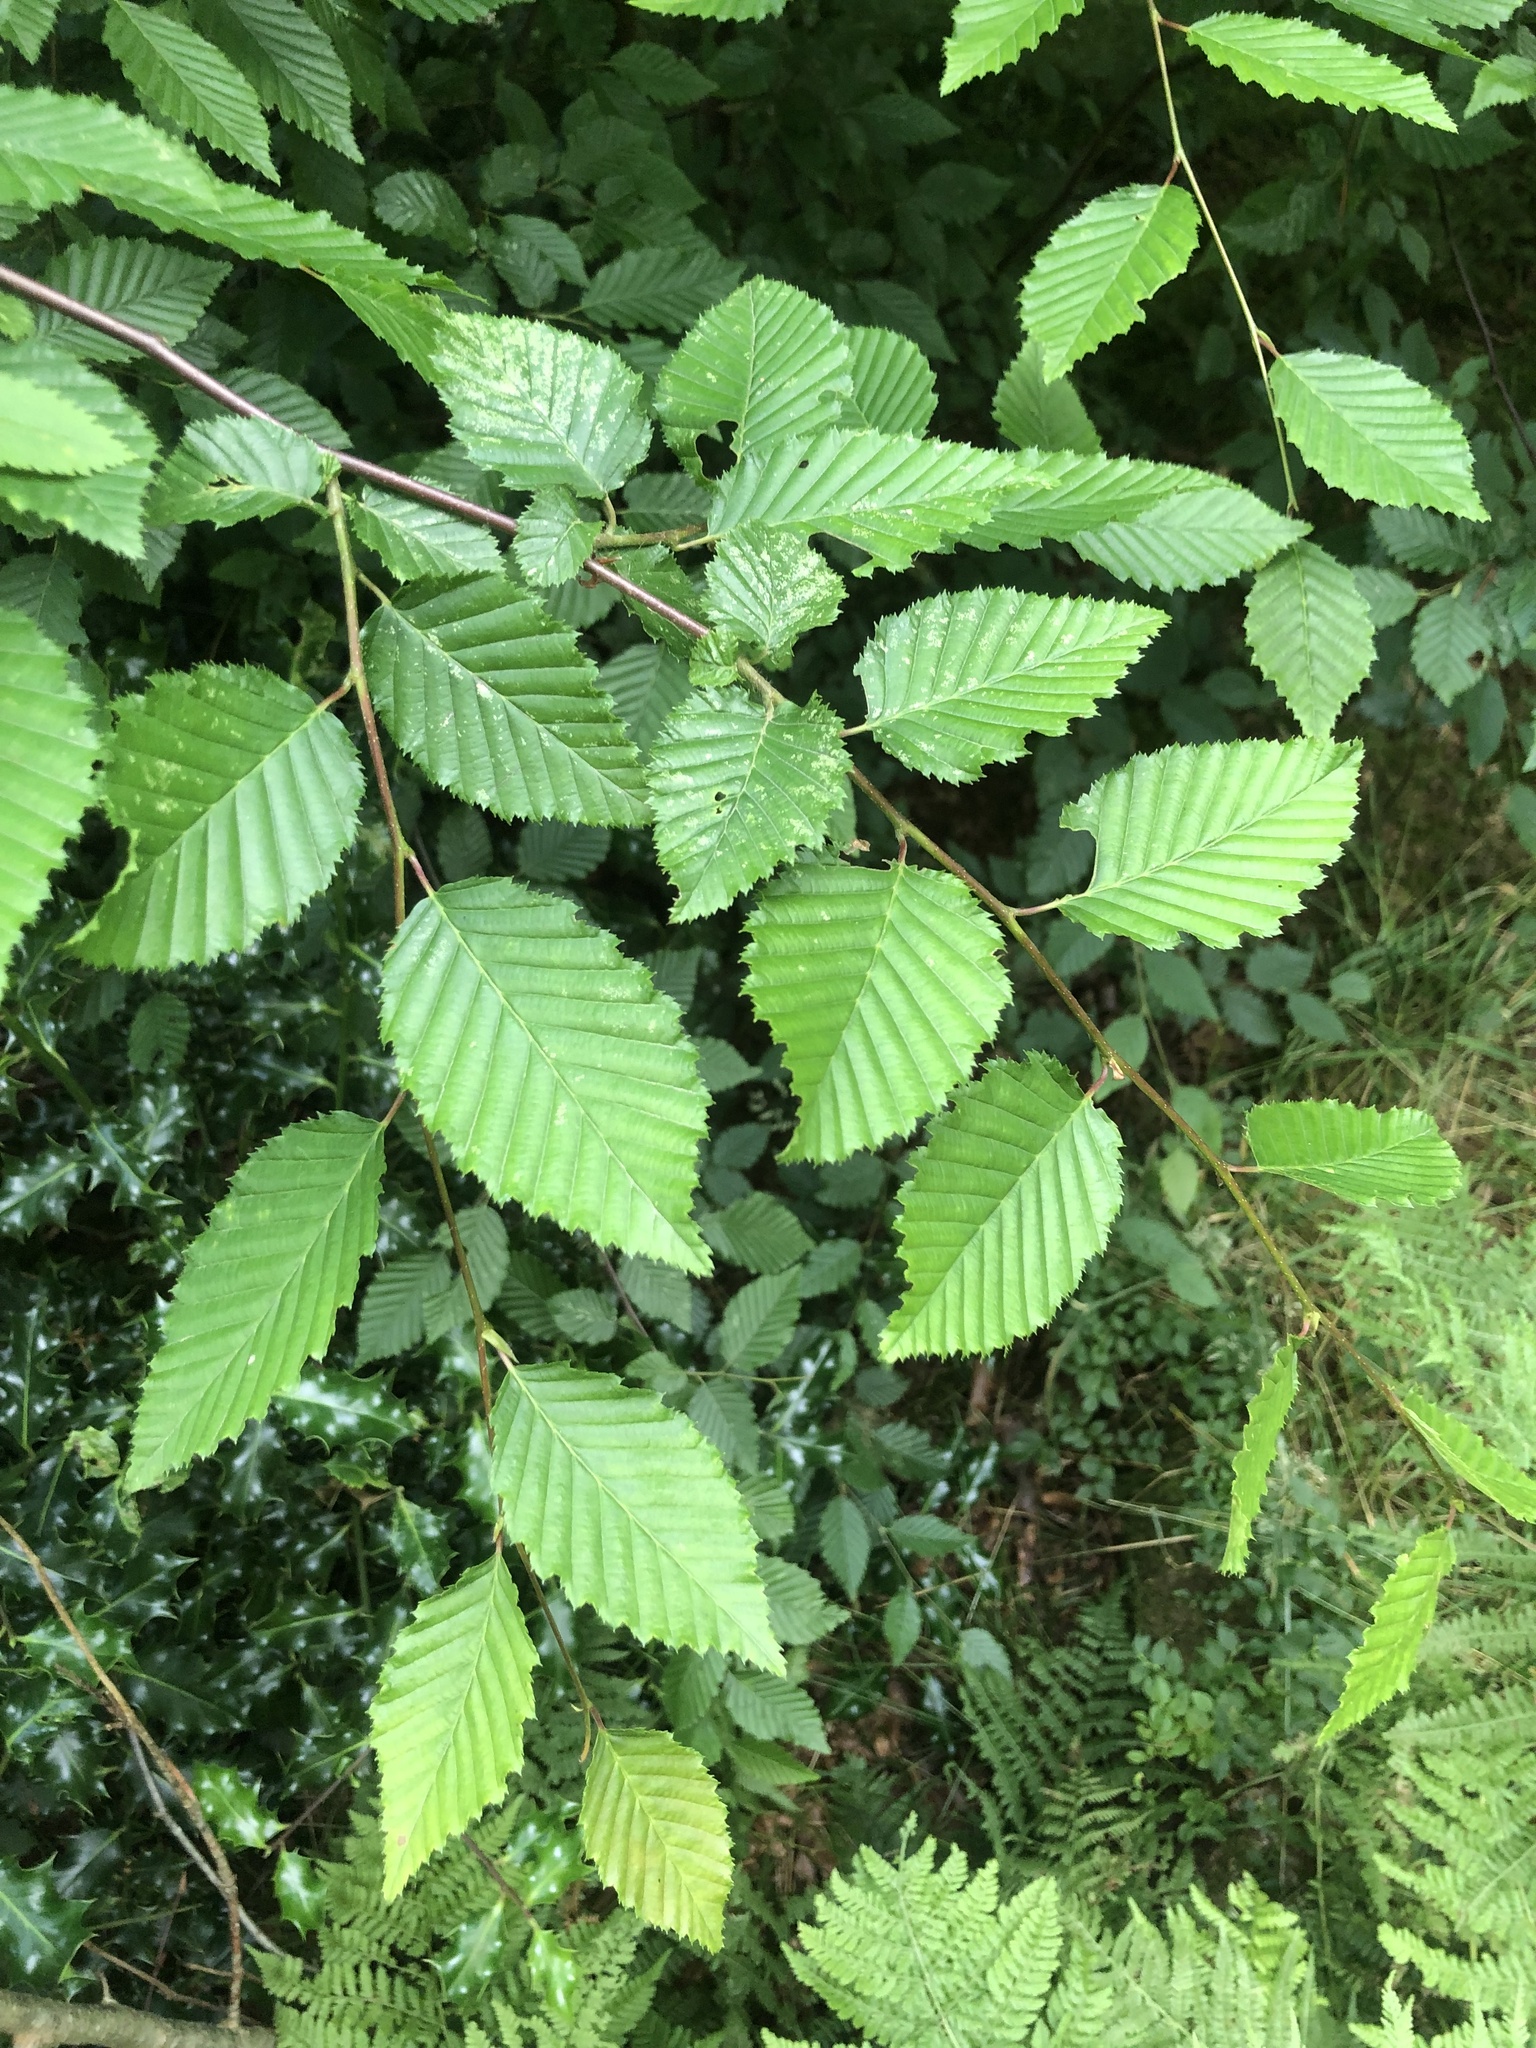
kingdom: Plantae
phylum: Tracheophyta
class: Magnoliopsida
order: Fagales
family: Betulaceae
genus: Carpinus
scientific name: Carpinus betulus
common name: Hornbeam
